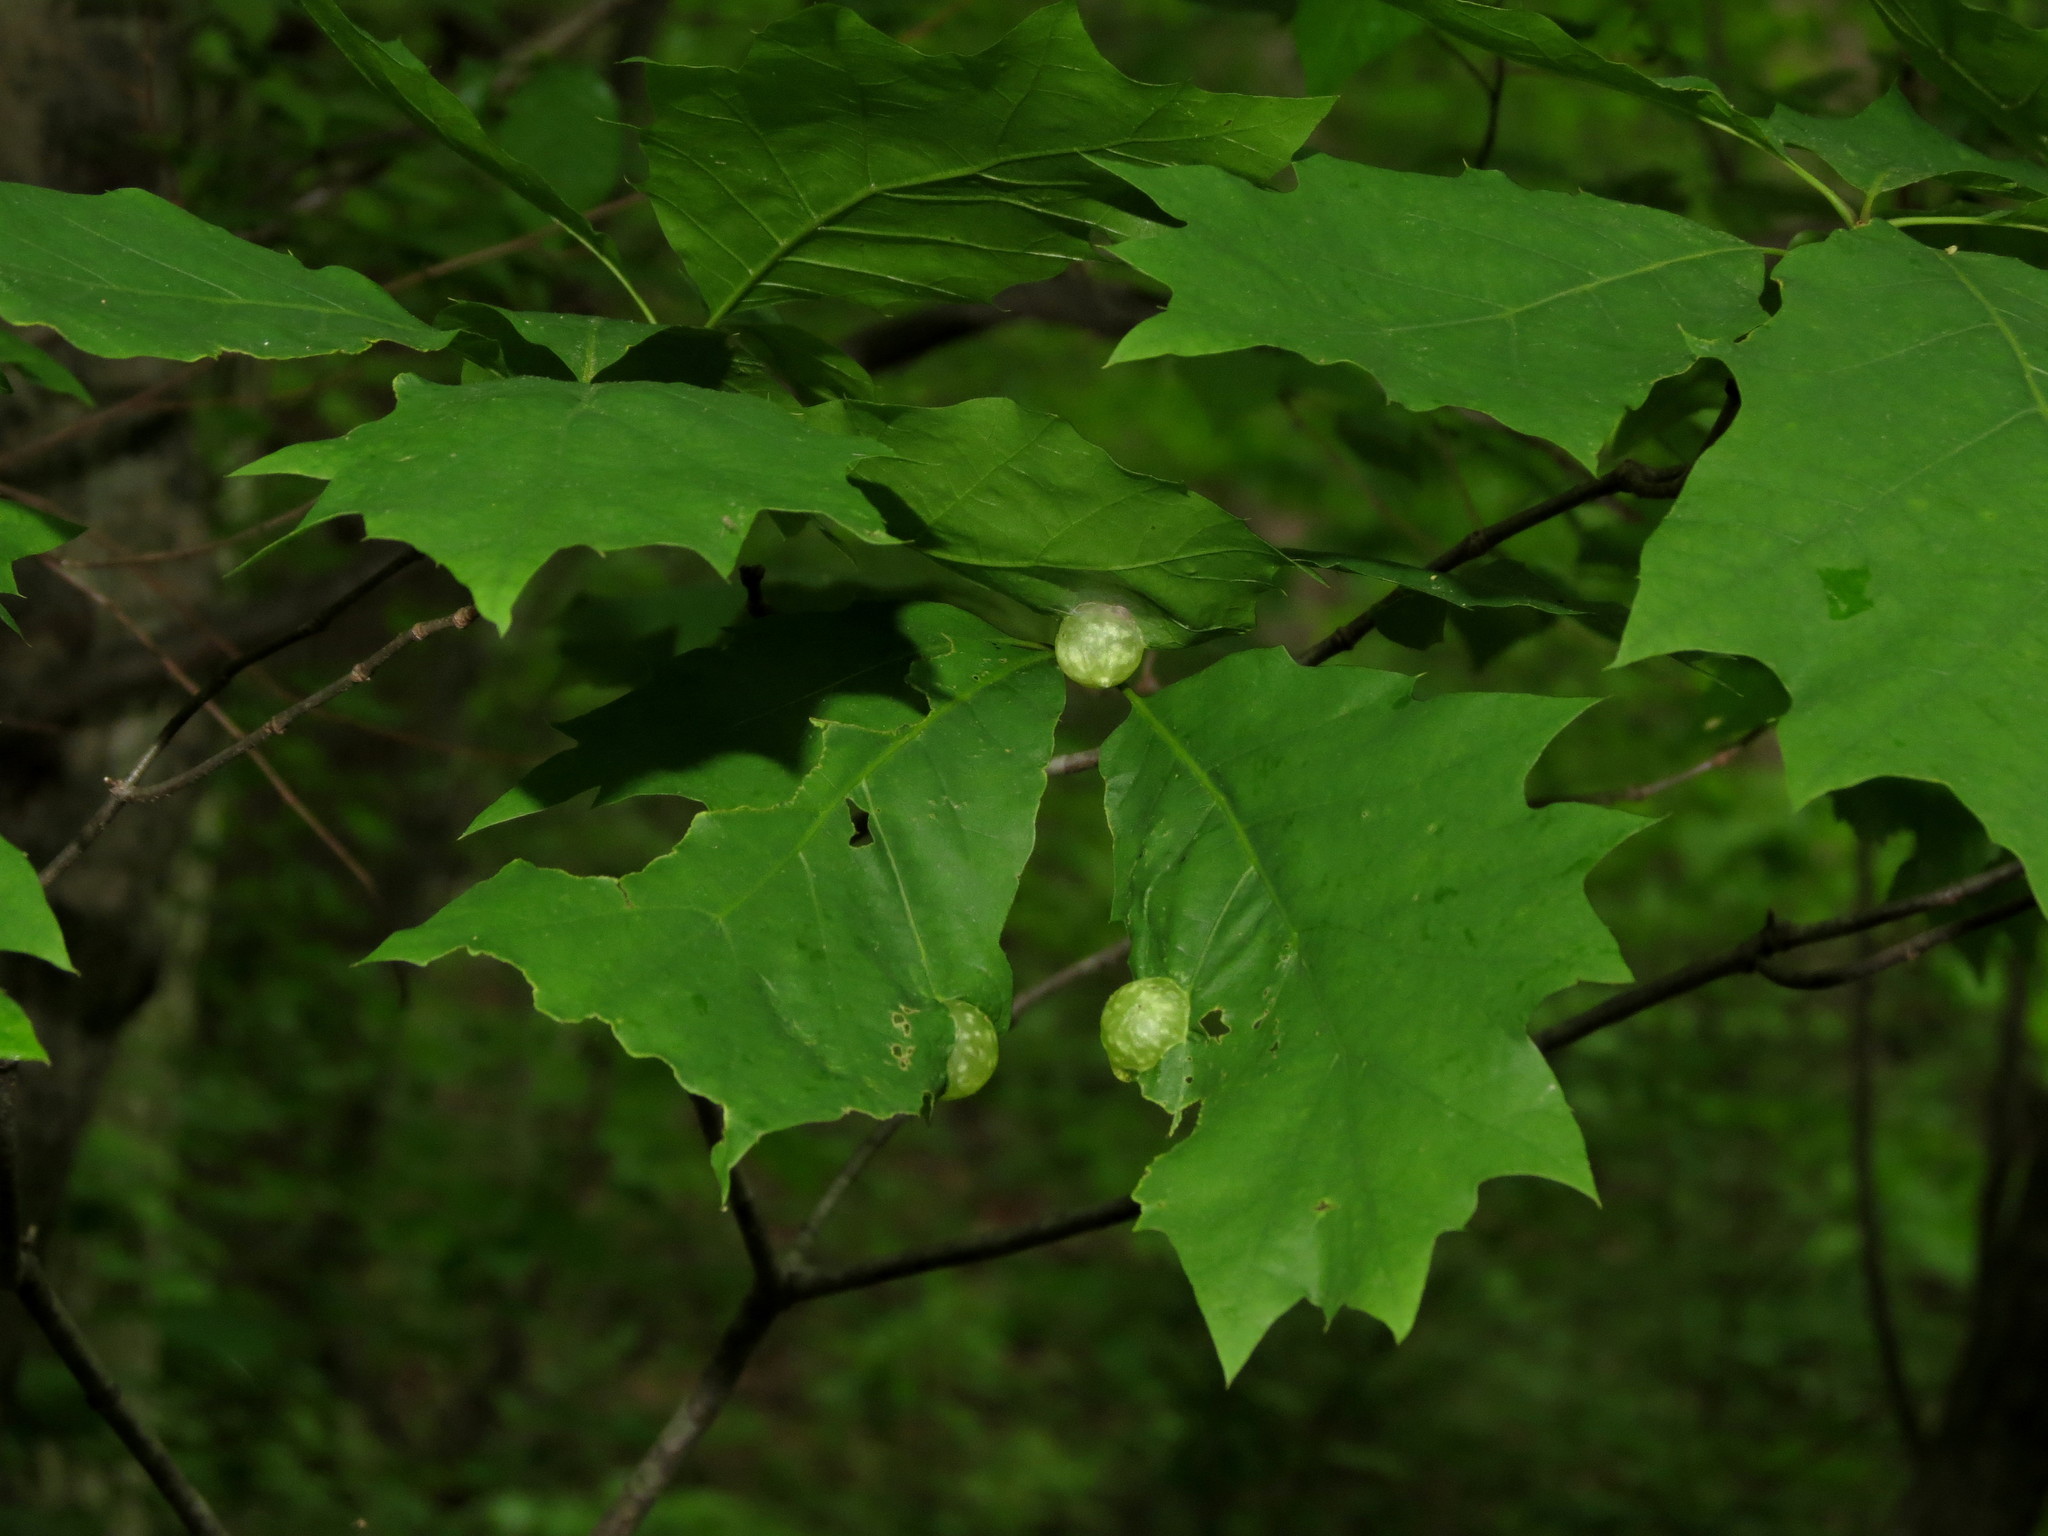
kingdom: Animalia
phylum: Arthropoda
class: Insecta
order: Hymenoptera
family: Cynipidae
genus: Dryocosmus
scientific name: Dryocosmus quercuspalustris
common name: Succulent oak gall wasp
